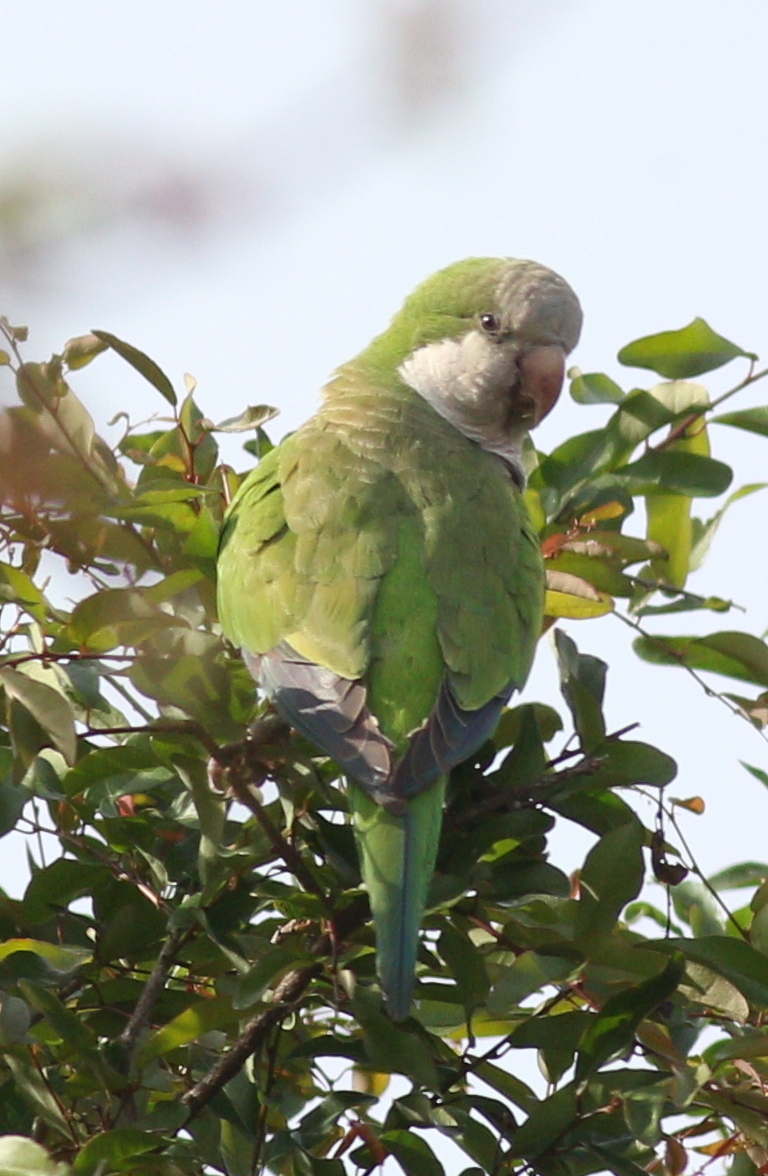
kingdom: Animalia
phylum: Chordata
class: Aves
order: Psittaciformes
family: Psittacidae
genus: Myiopsitta
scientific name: Myiopsitta monachus
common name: Monk parakeet
